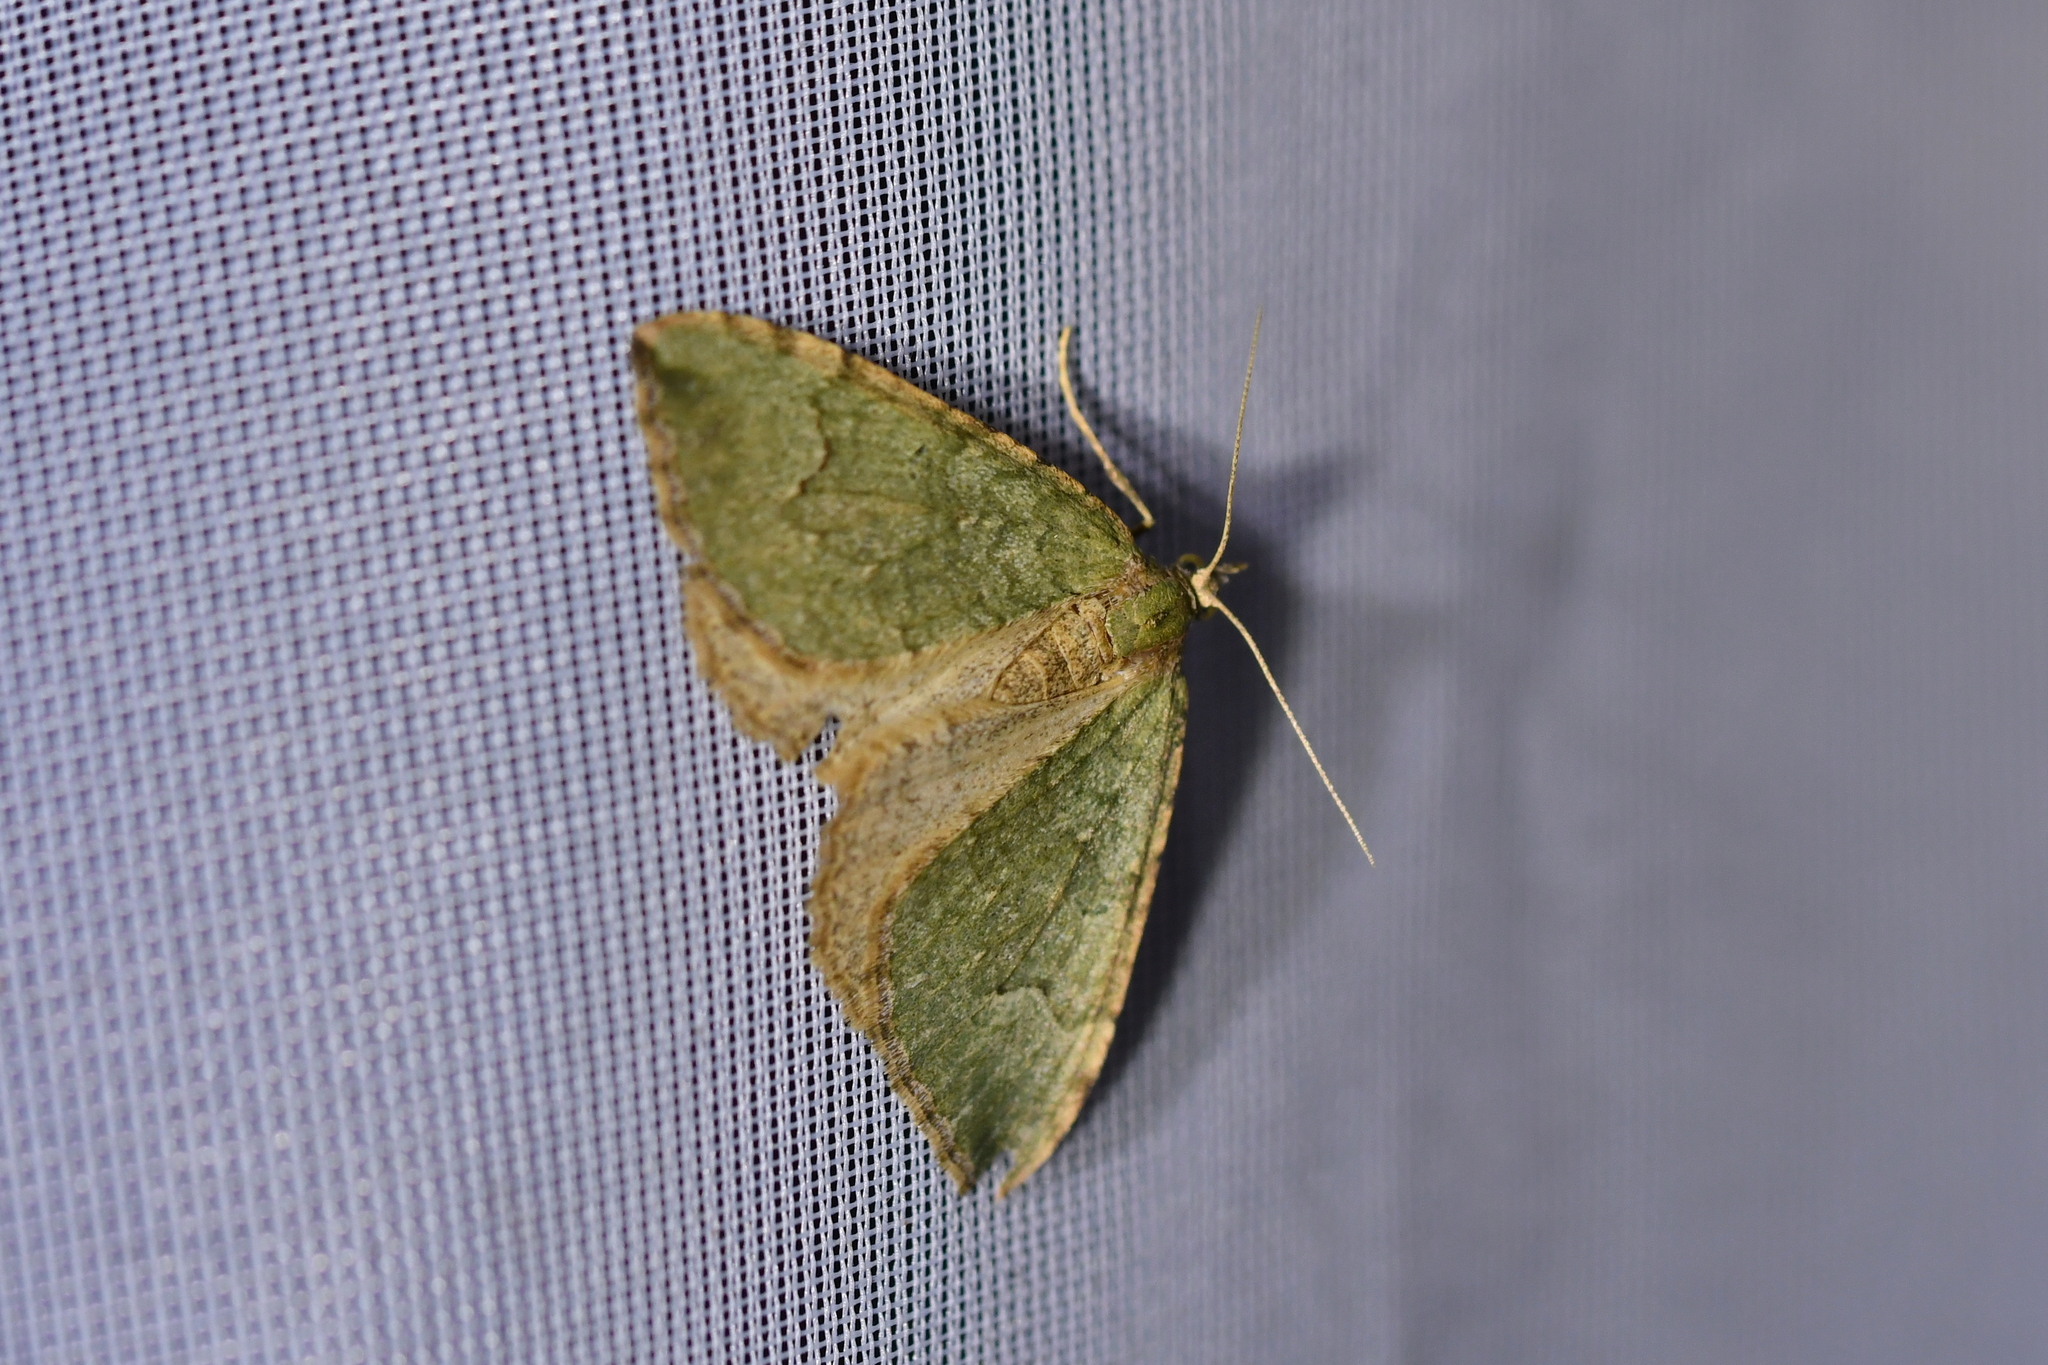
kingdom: Animalia
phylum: Arthropoda
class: Insecta
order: Lepidoptera
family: Geometridae
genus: Epyaxa
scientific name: Epyaxa rosearia
